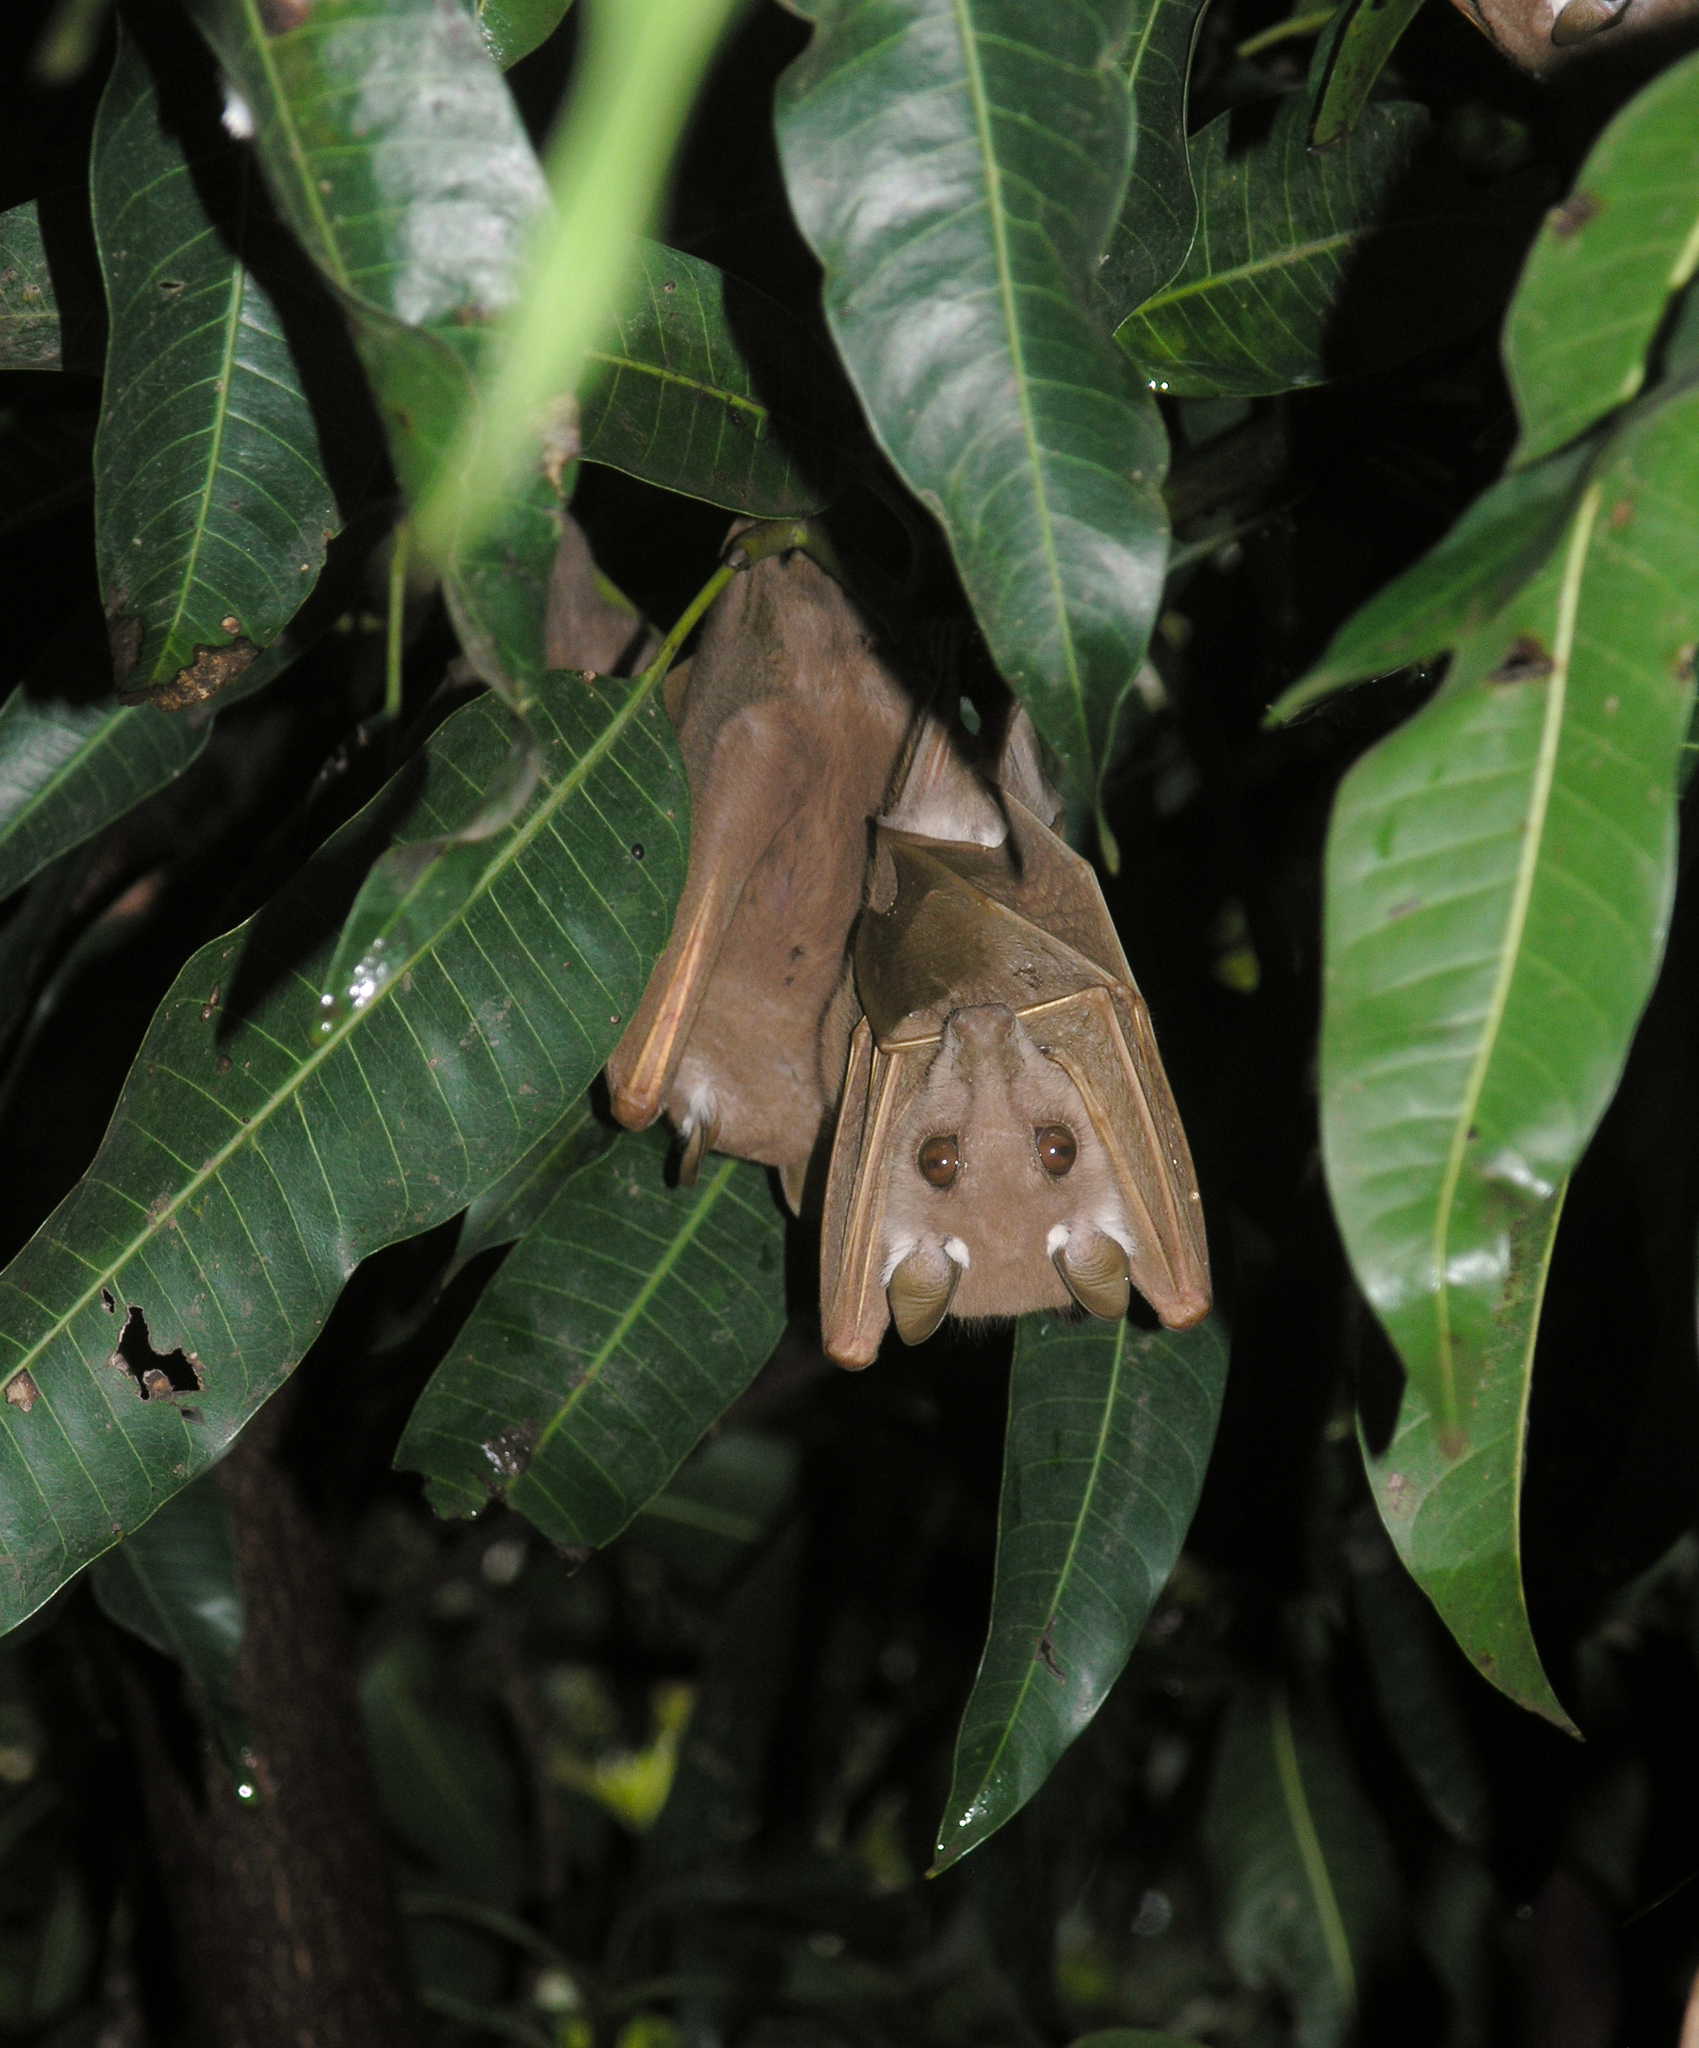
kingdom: Animalia
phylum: Chordata
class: Mammalia
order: Chiroptera
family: Pteropodidae
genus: Epomophorus
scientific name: Epomophorus
